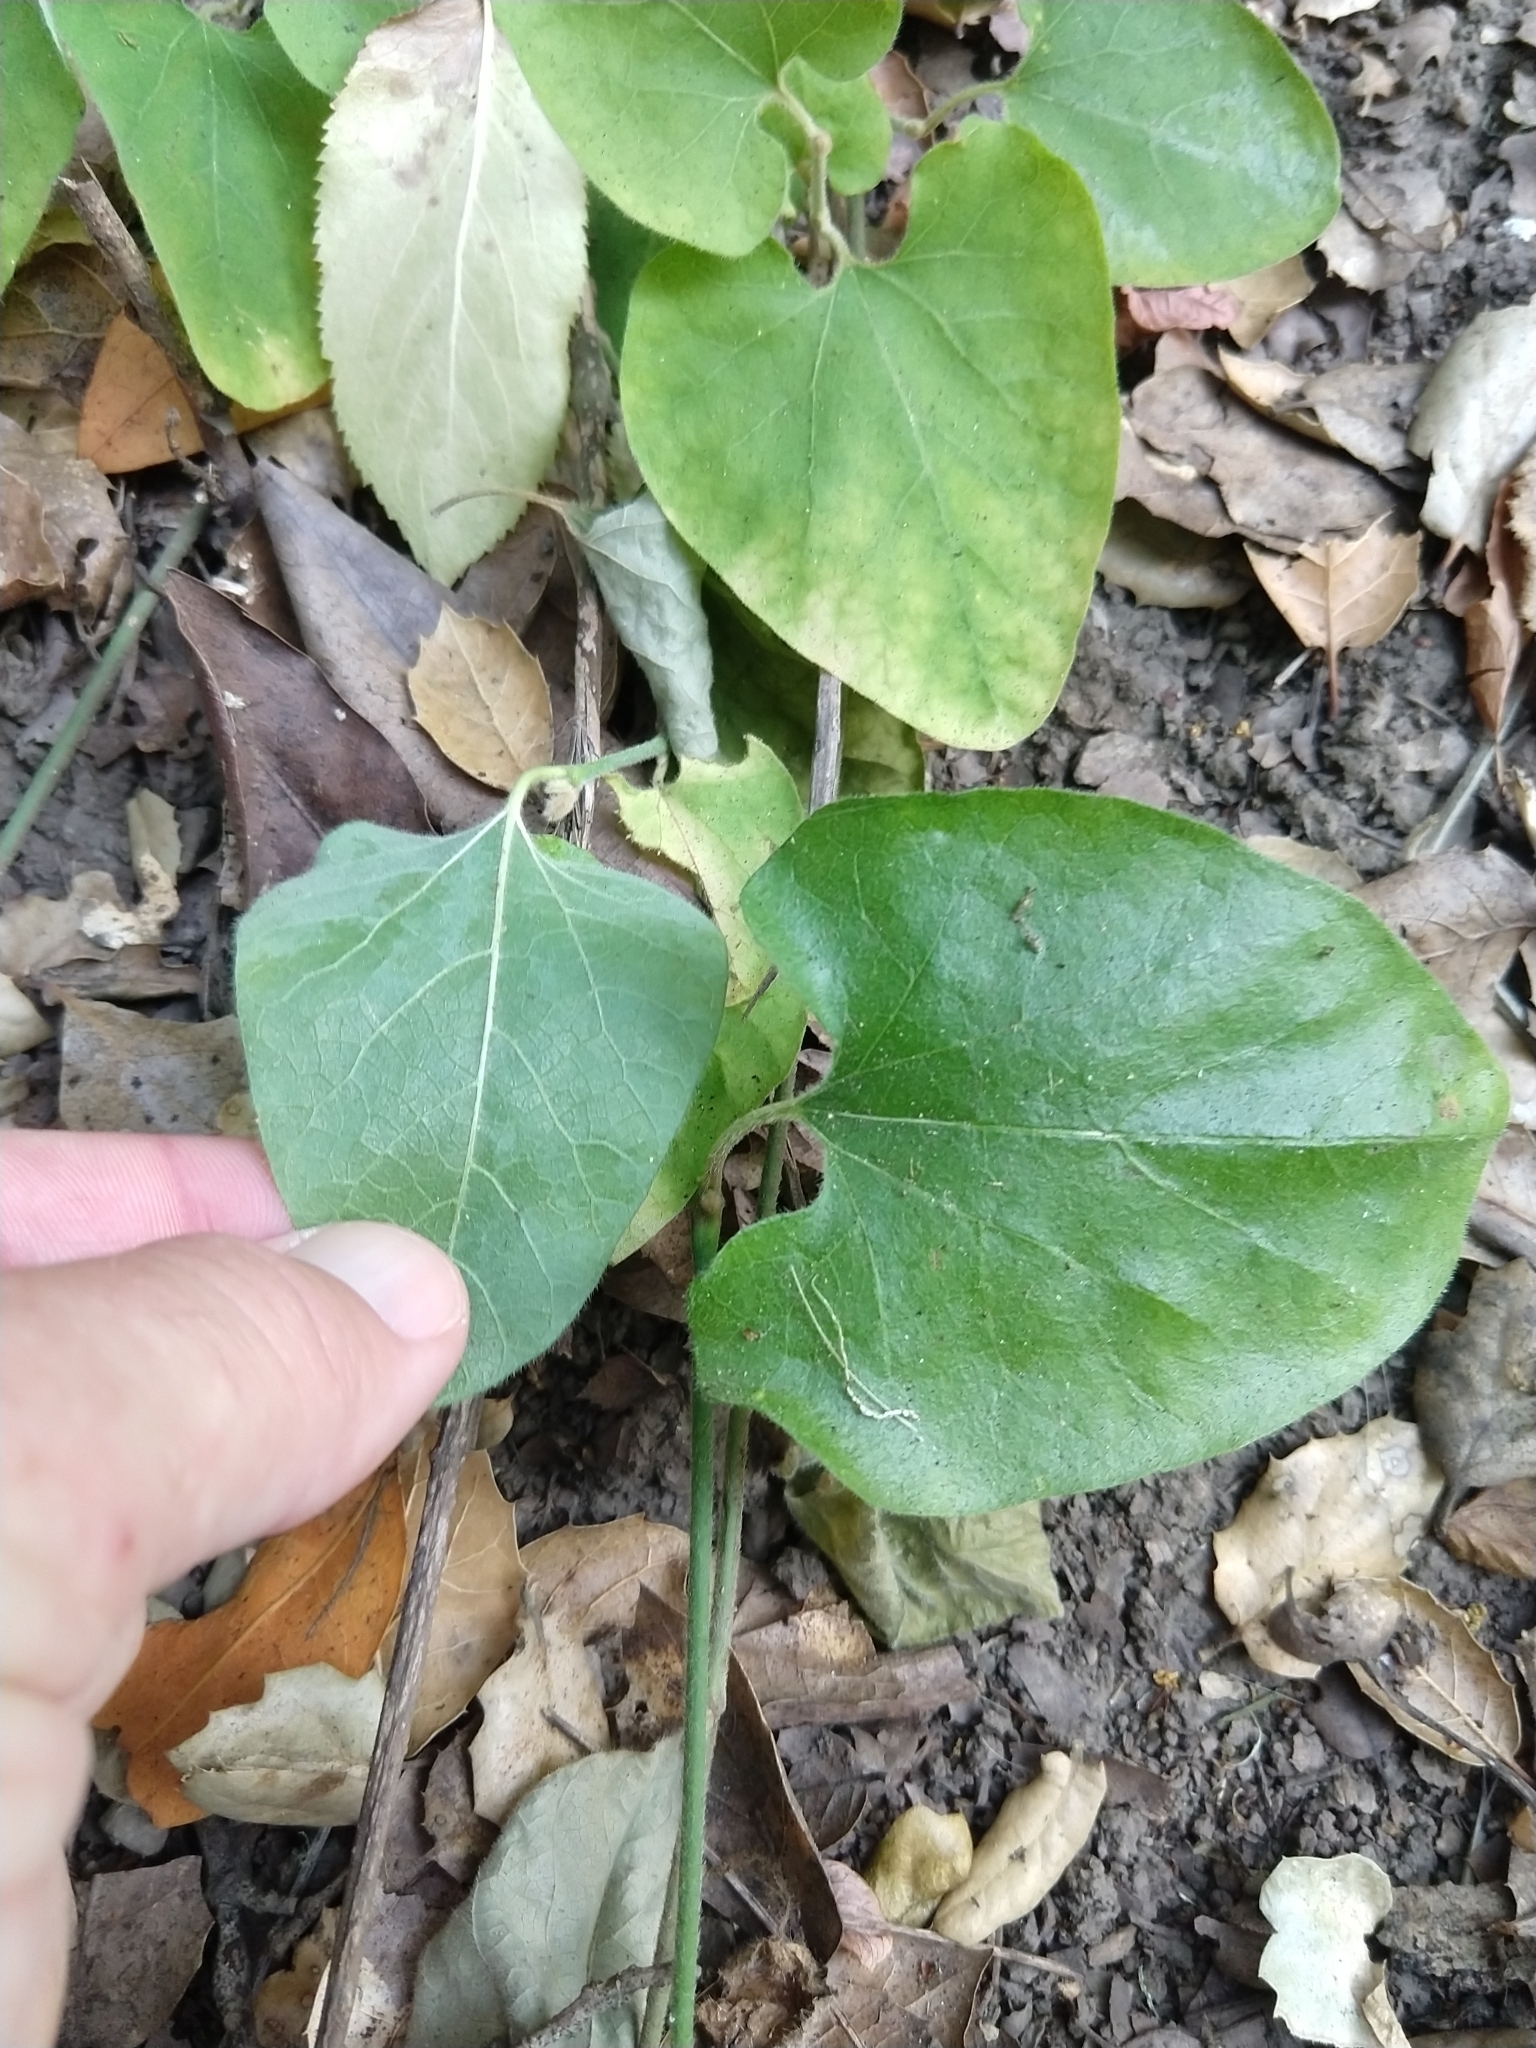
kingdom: Plantae
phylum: Tracheophyta
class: Magnoliopsida
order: Piperales
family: Aristolochiaceae
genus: Isotrema
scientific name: Isotrema californicum
